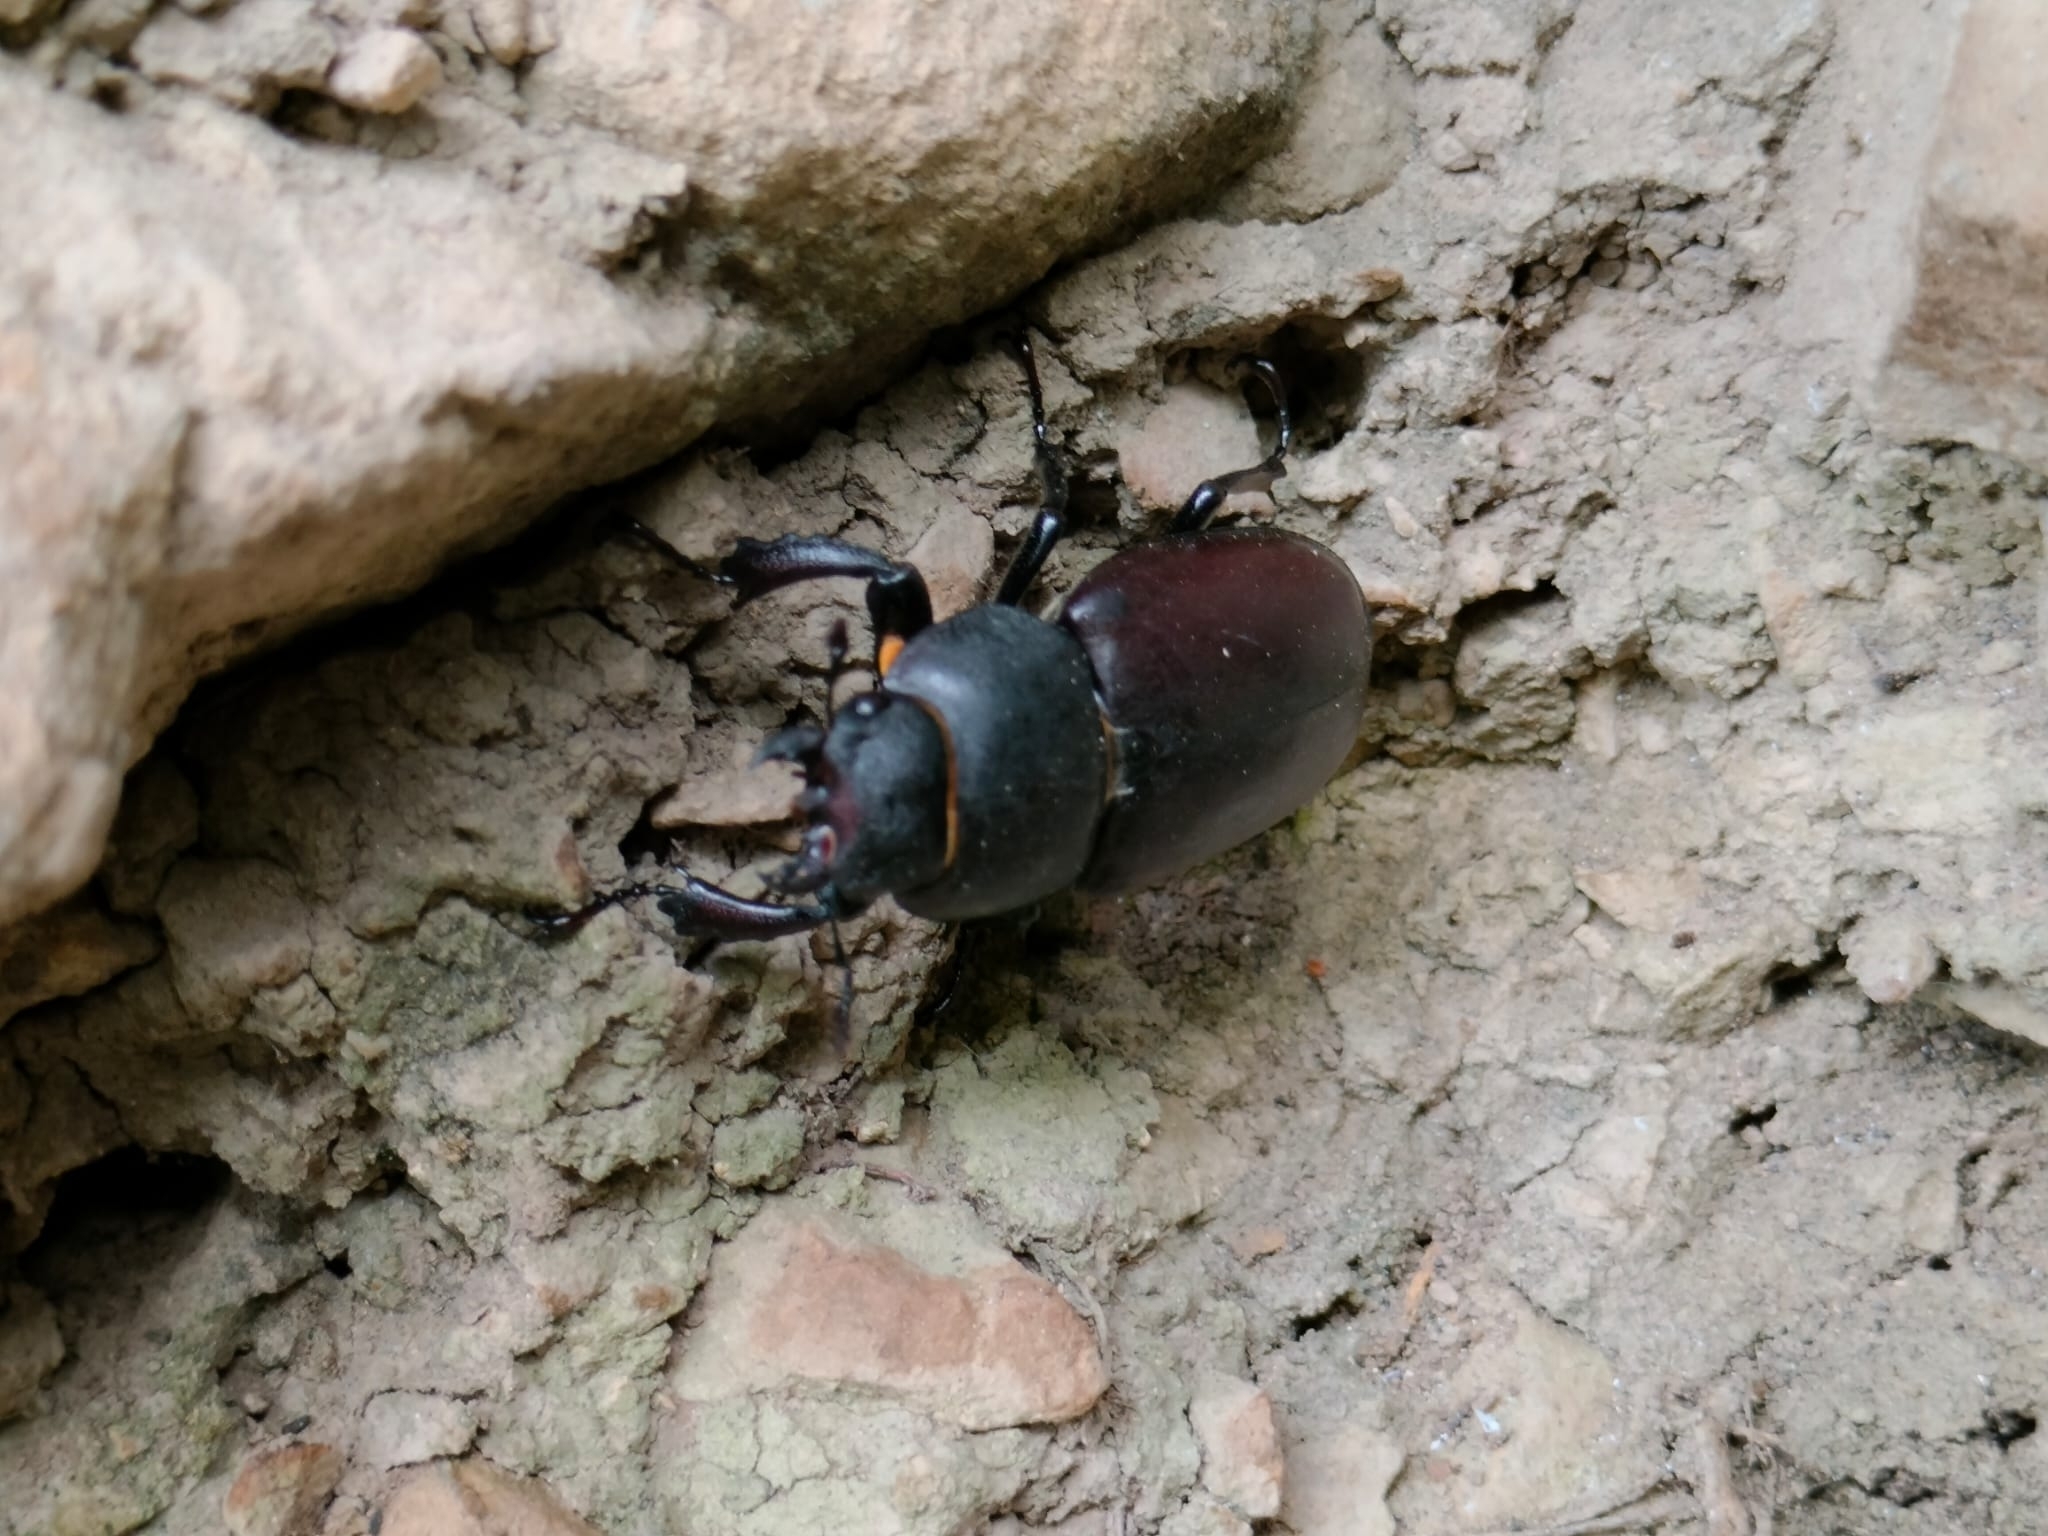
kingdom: Animalia
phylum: Arthropoda
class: Insecta
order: Coleoptera
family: Lucanidae
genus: Lucanus
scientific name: Lucanus cervus
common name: Stag beetle
